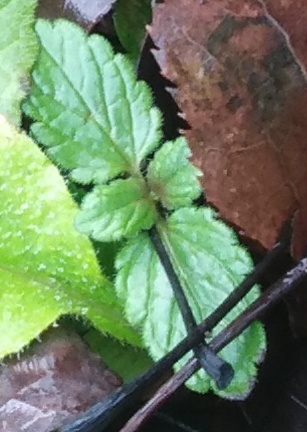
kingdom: Plantae
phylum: Tracheophyta
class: Magnoliopsida
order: Lamiales
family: Plantaginaceae
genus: Veronica
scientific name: Veronica chamaedrys
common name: Germander speedwell
